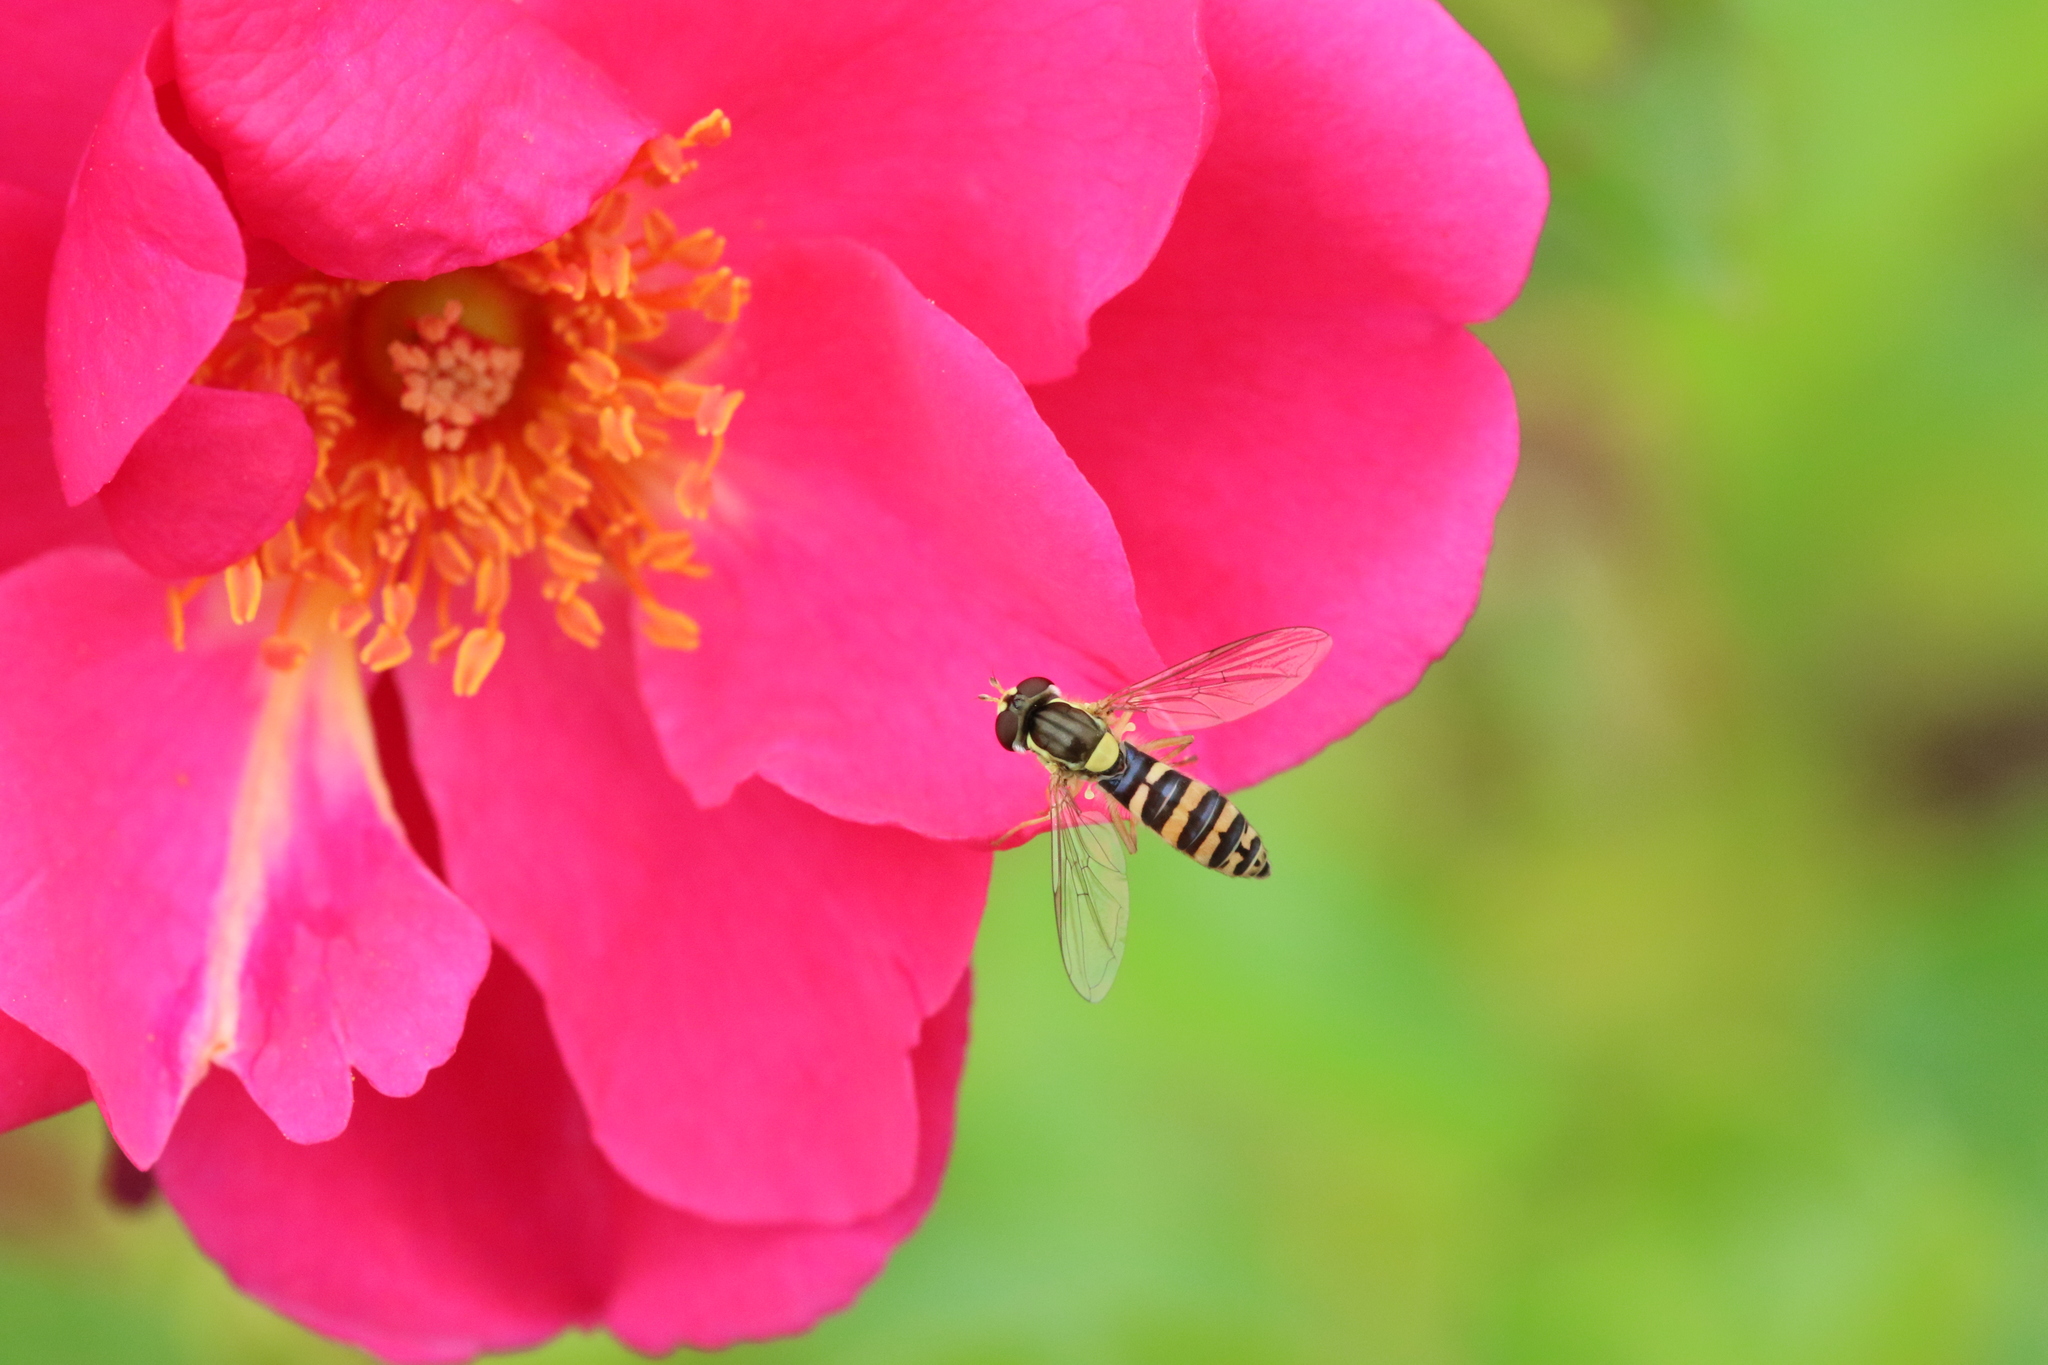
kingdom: Animalia
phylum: Arthropoda
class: Insecta
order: Diptera
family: Syrphidae
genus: Sphaerophoria
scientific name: Sphaerophoria
